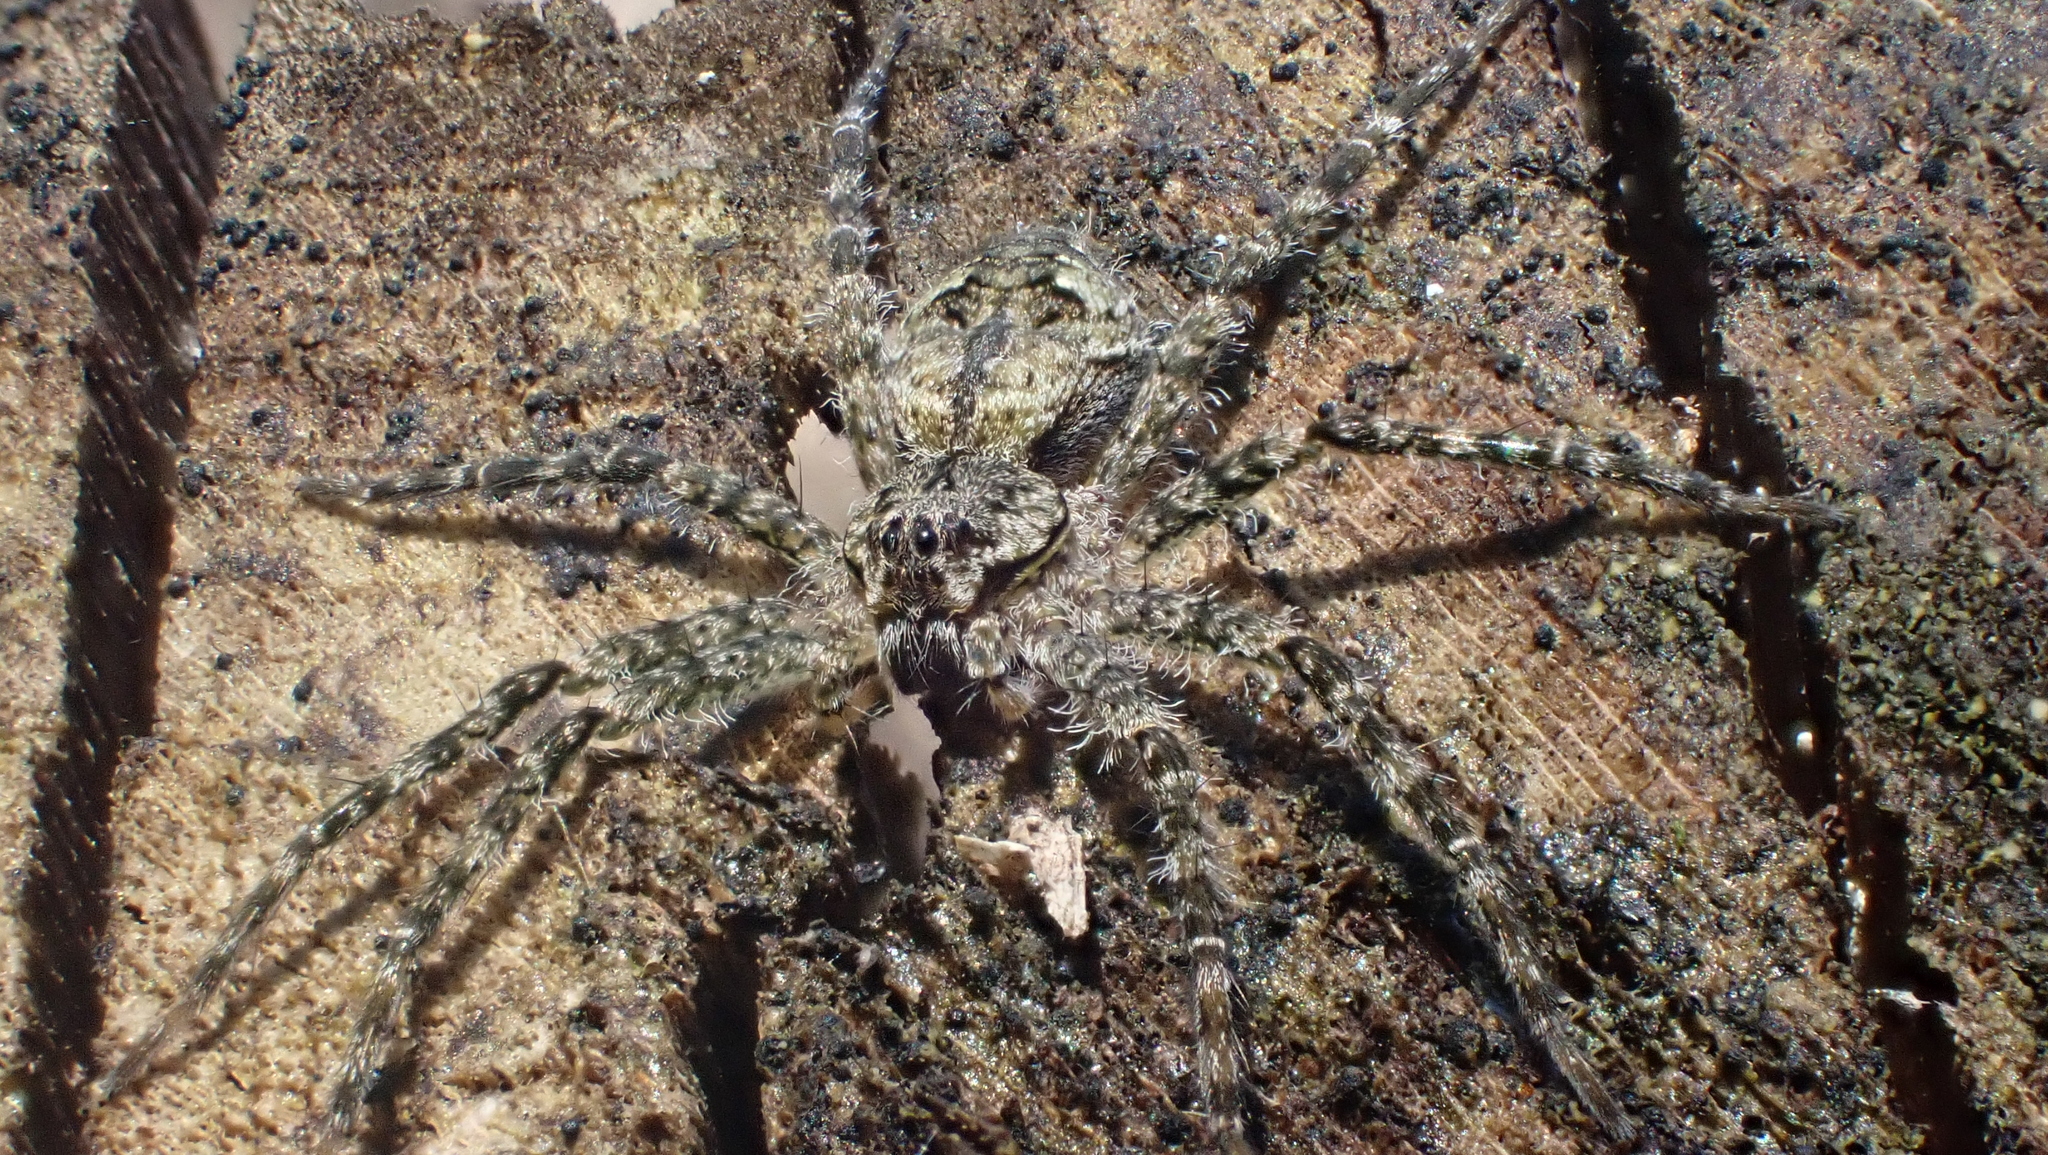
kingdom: Animalia
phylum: Arthropoda
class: Arachnida
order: Araneae
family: Pisauridae
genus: Dolomedes
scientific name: Dolomedes albineus
